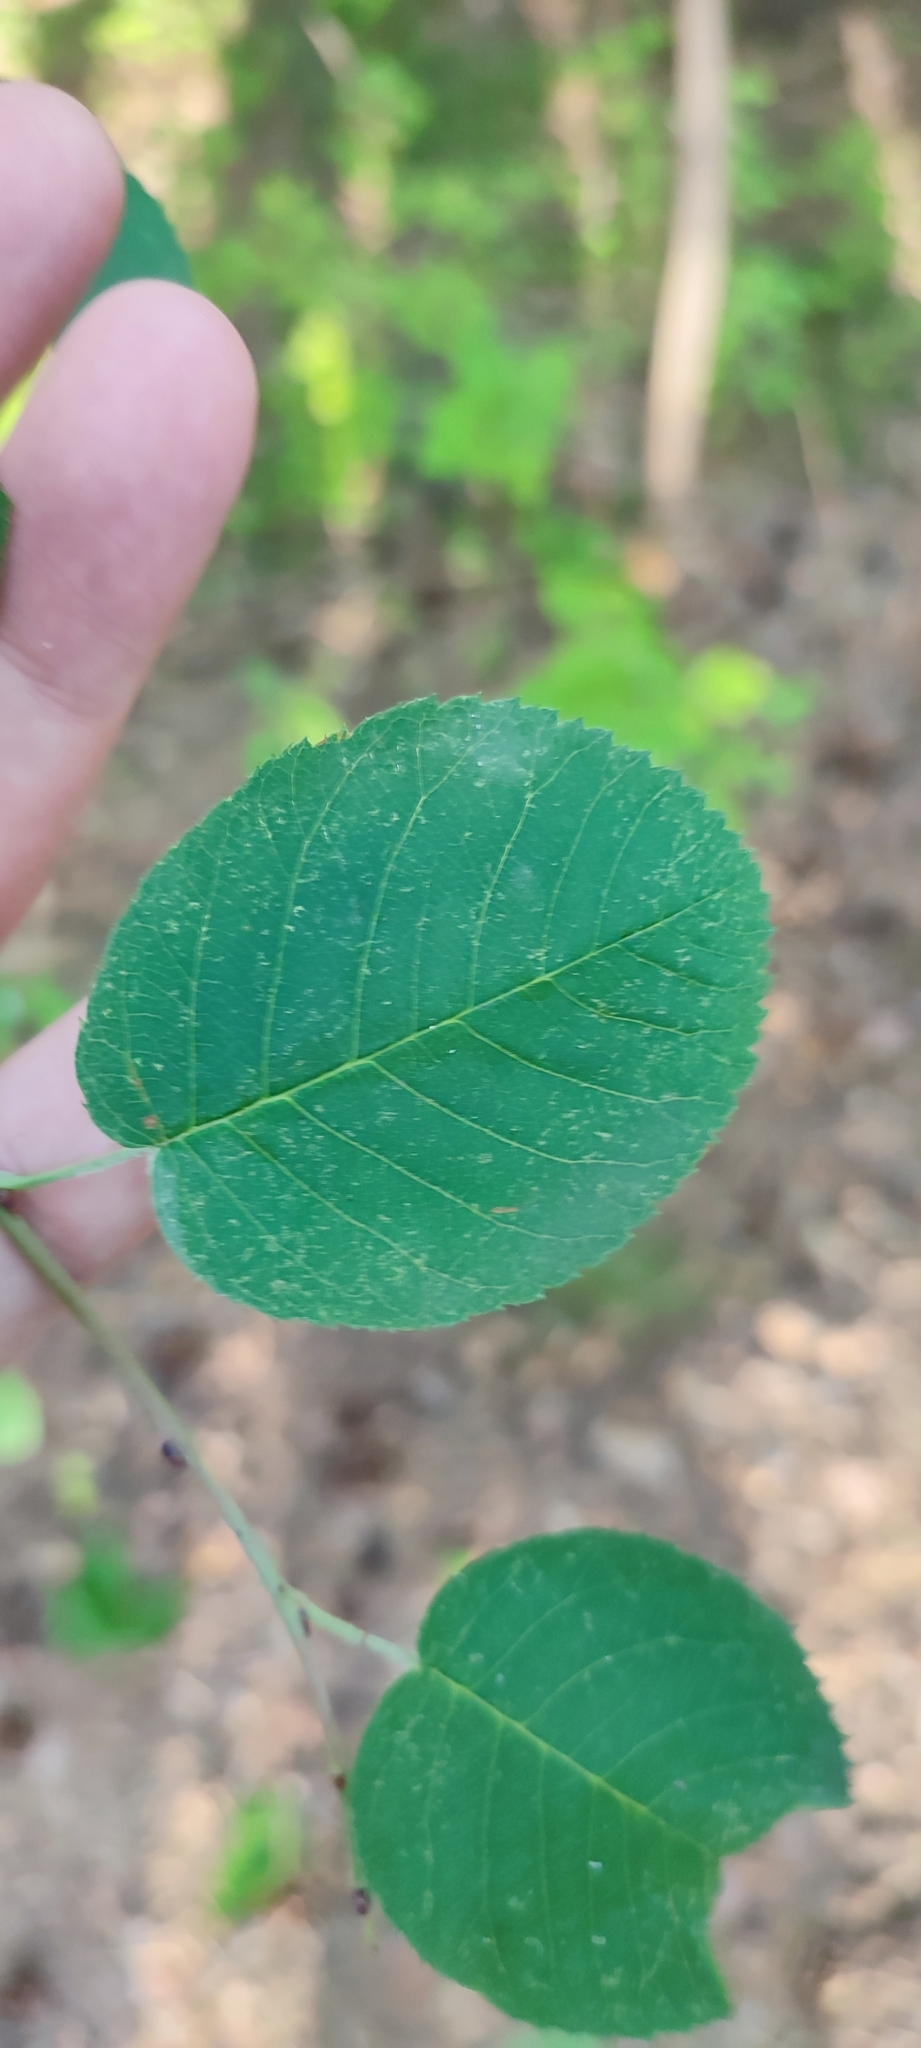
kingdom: Plantae
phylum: Tracheophyta
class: Magnoliopsida
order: Rosales
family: Rosaceae
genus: Amelanchier
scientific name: Amelanchier
